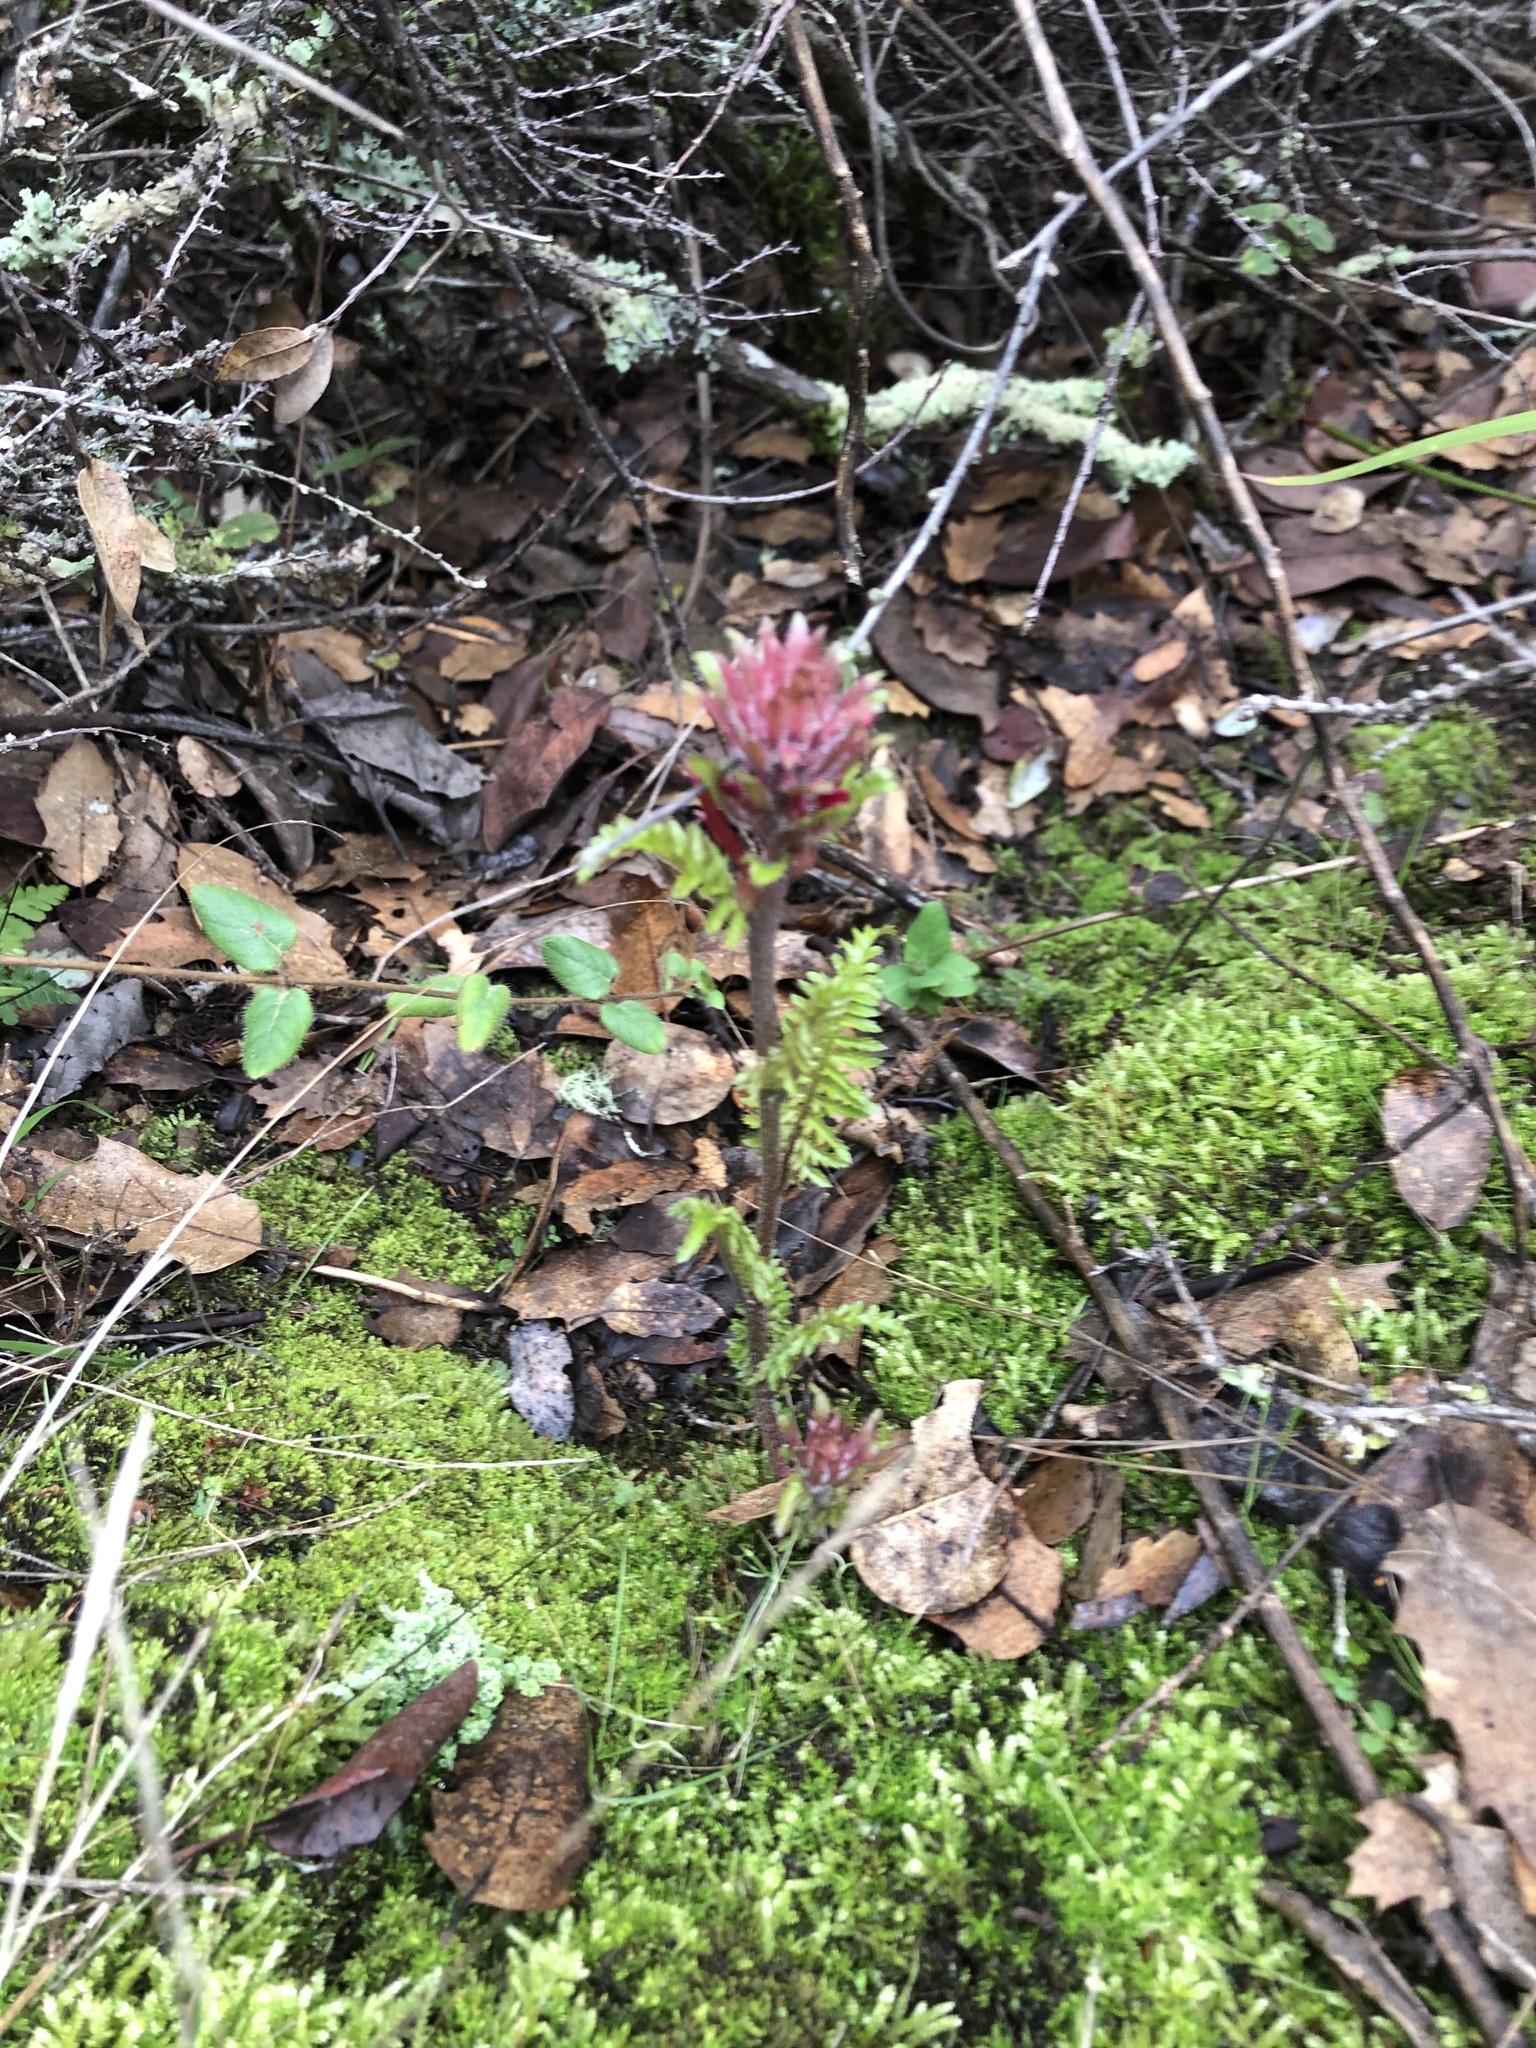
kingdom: Plantae
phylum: Tracheophyta
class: Magnoliopsida
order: Lamiales
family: Orobanchaceae
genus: Pedicularis
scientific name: Pedicularis densiflora
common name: Indian warrior
